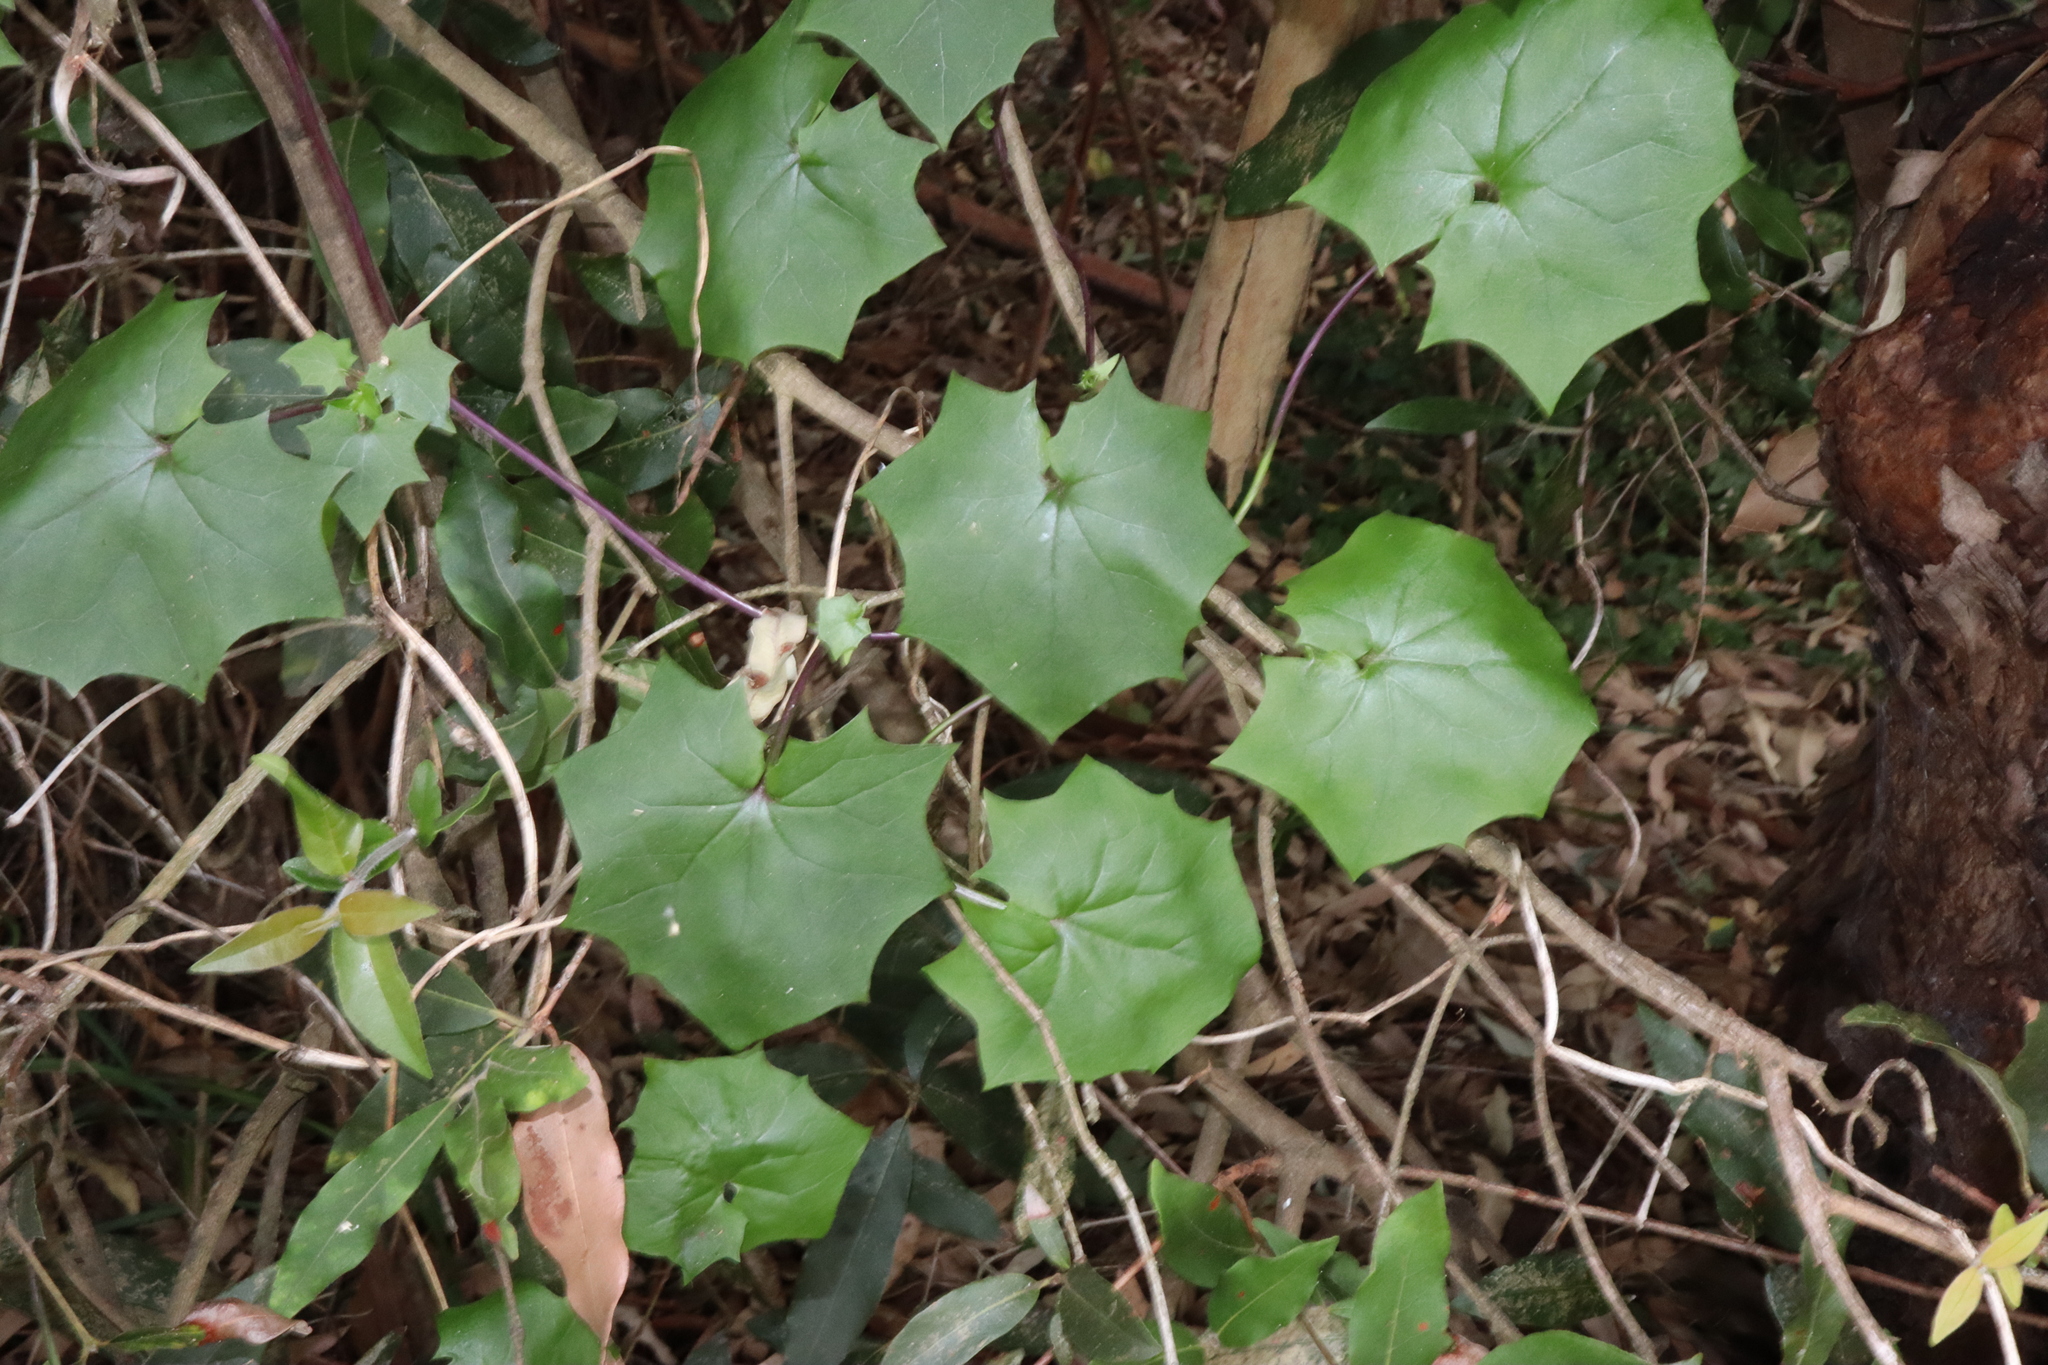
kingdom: Plantae
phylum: Tracheophyta
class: Magnoliopsida
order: Asterales
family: Asteraceae
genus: Delairea
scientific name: Delairea odorata
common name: Cape-ivy
